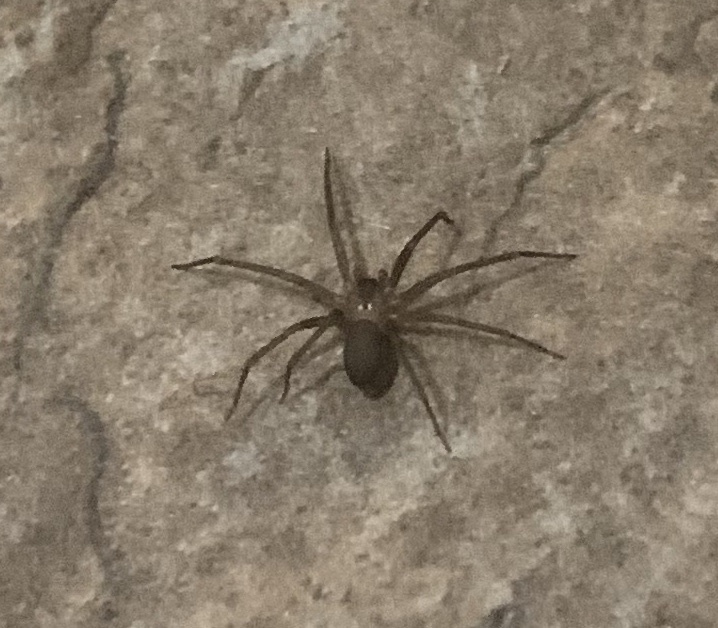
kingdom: Animalia
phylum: Arthropoda
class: Arachnida
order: Araneae
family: Sicariidae
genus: Loxosceles
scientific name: Loxosceles reclusa
